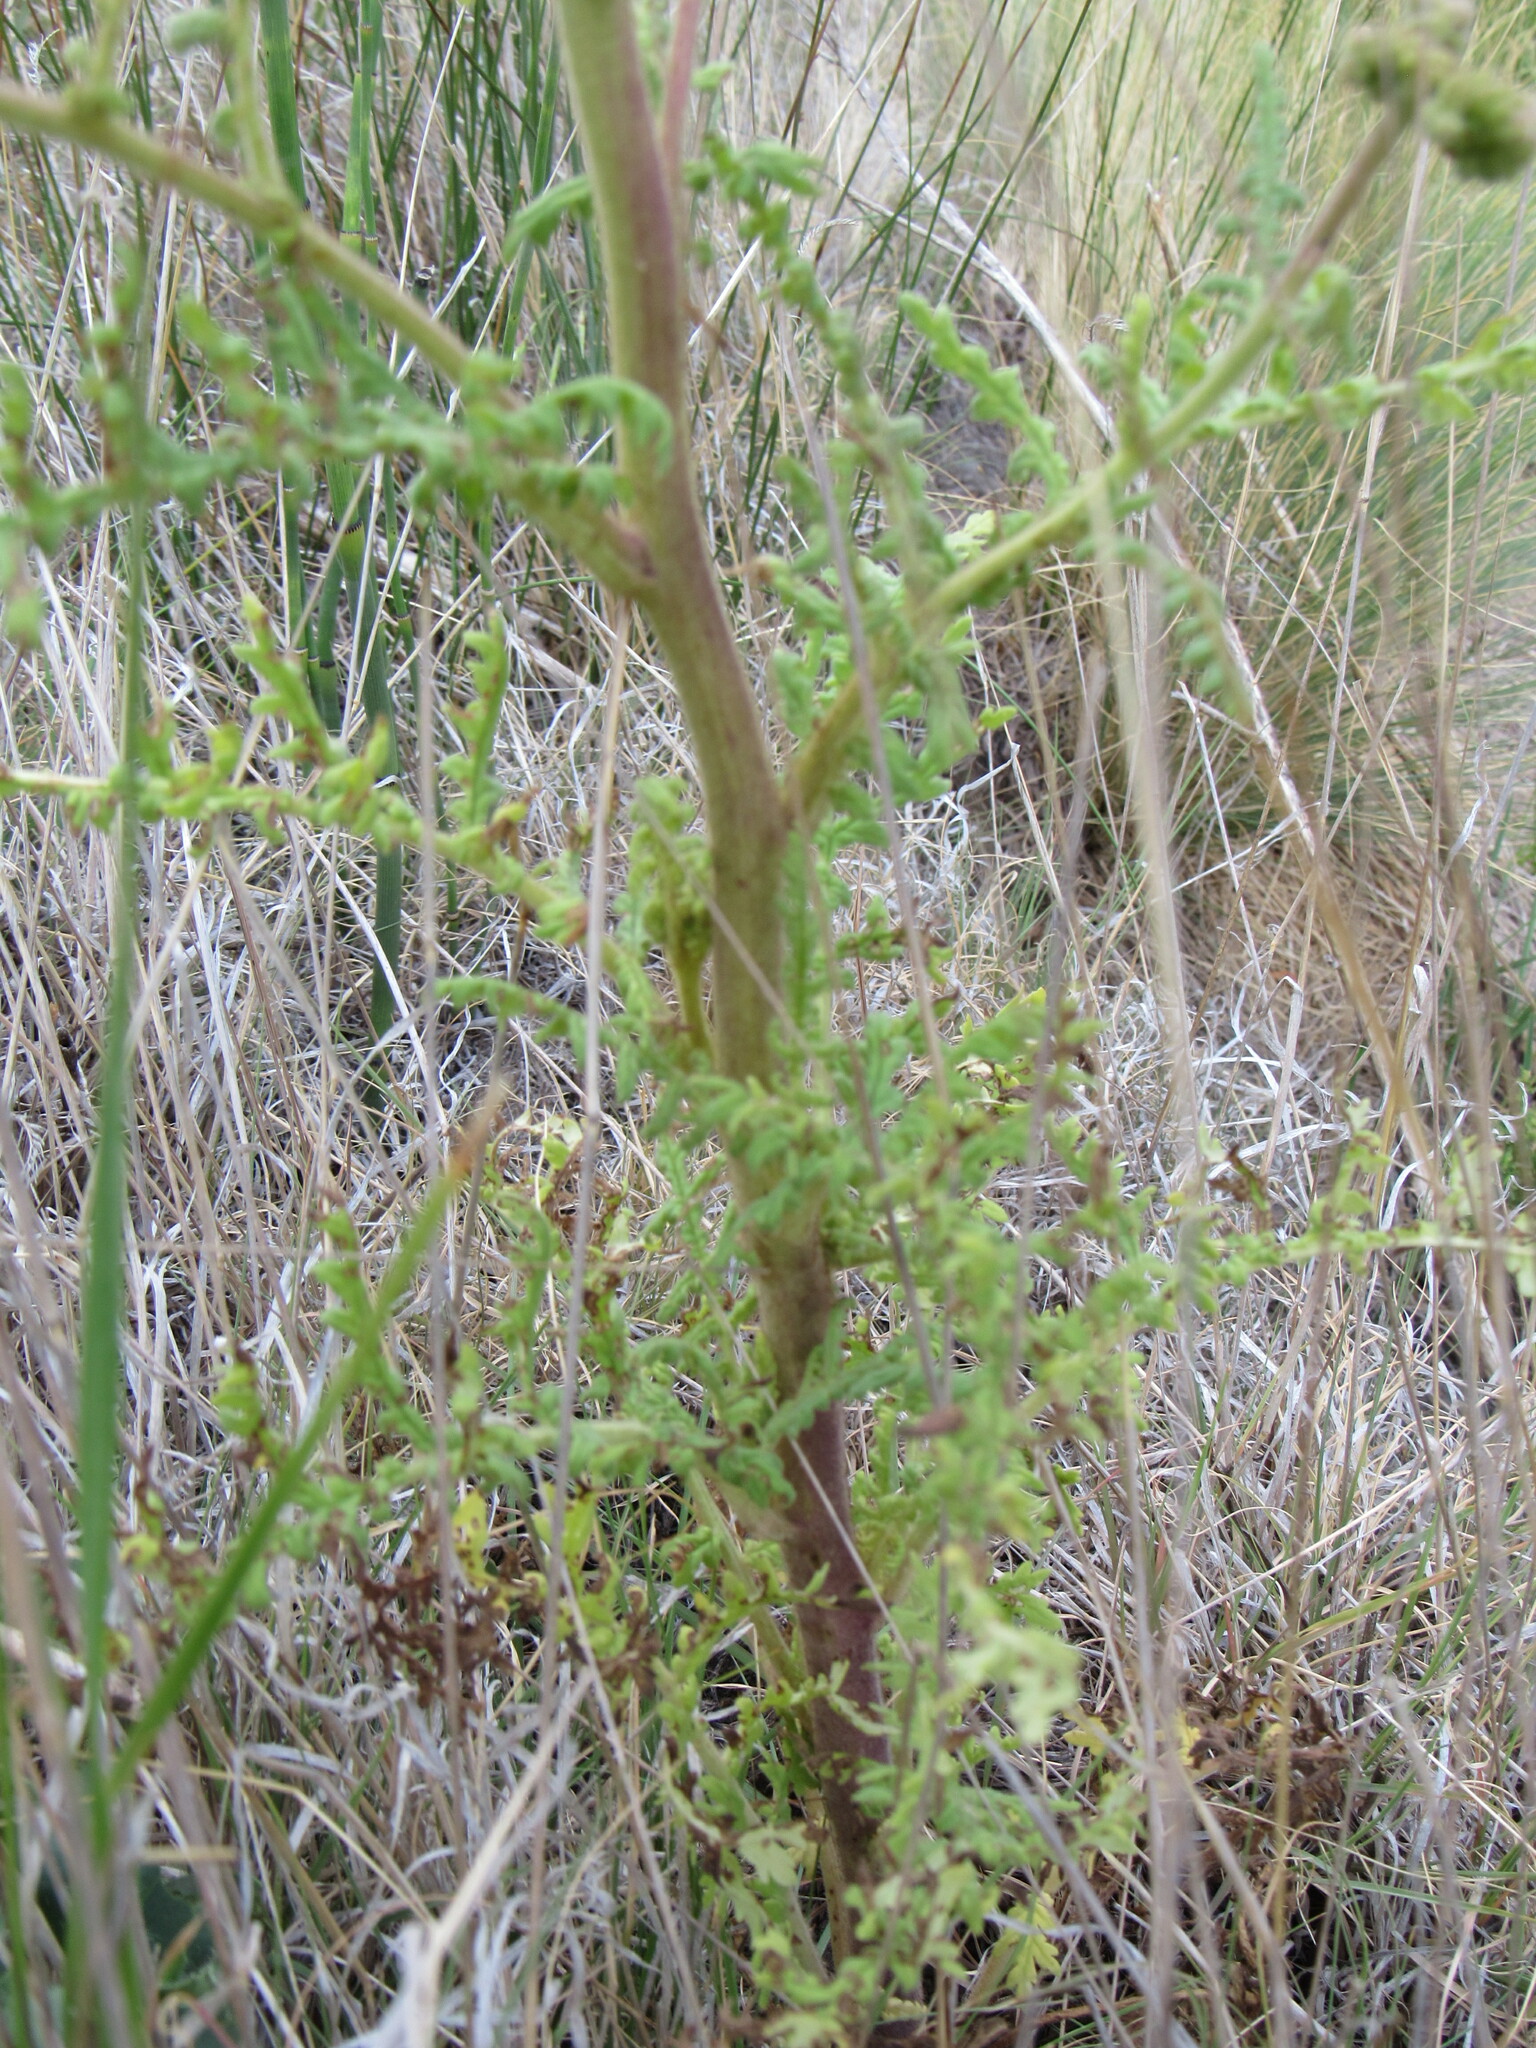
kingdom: Plantae
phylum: Tracheophyta
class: Magnoliopsida
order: Boraginales
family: Hydrophyllaceae
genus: Phacelia
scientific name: Phacelia alba
